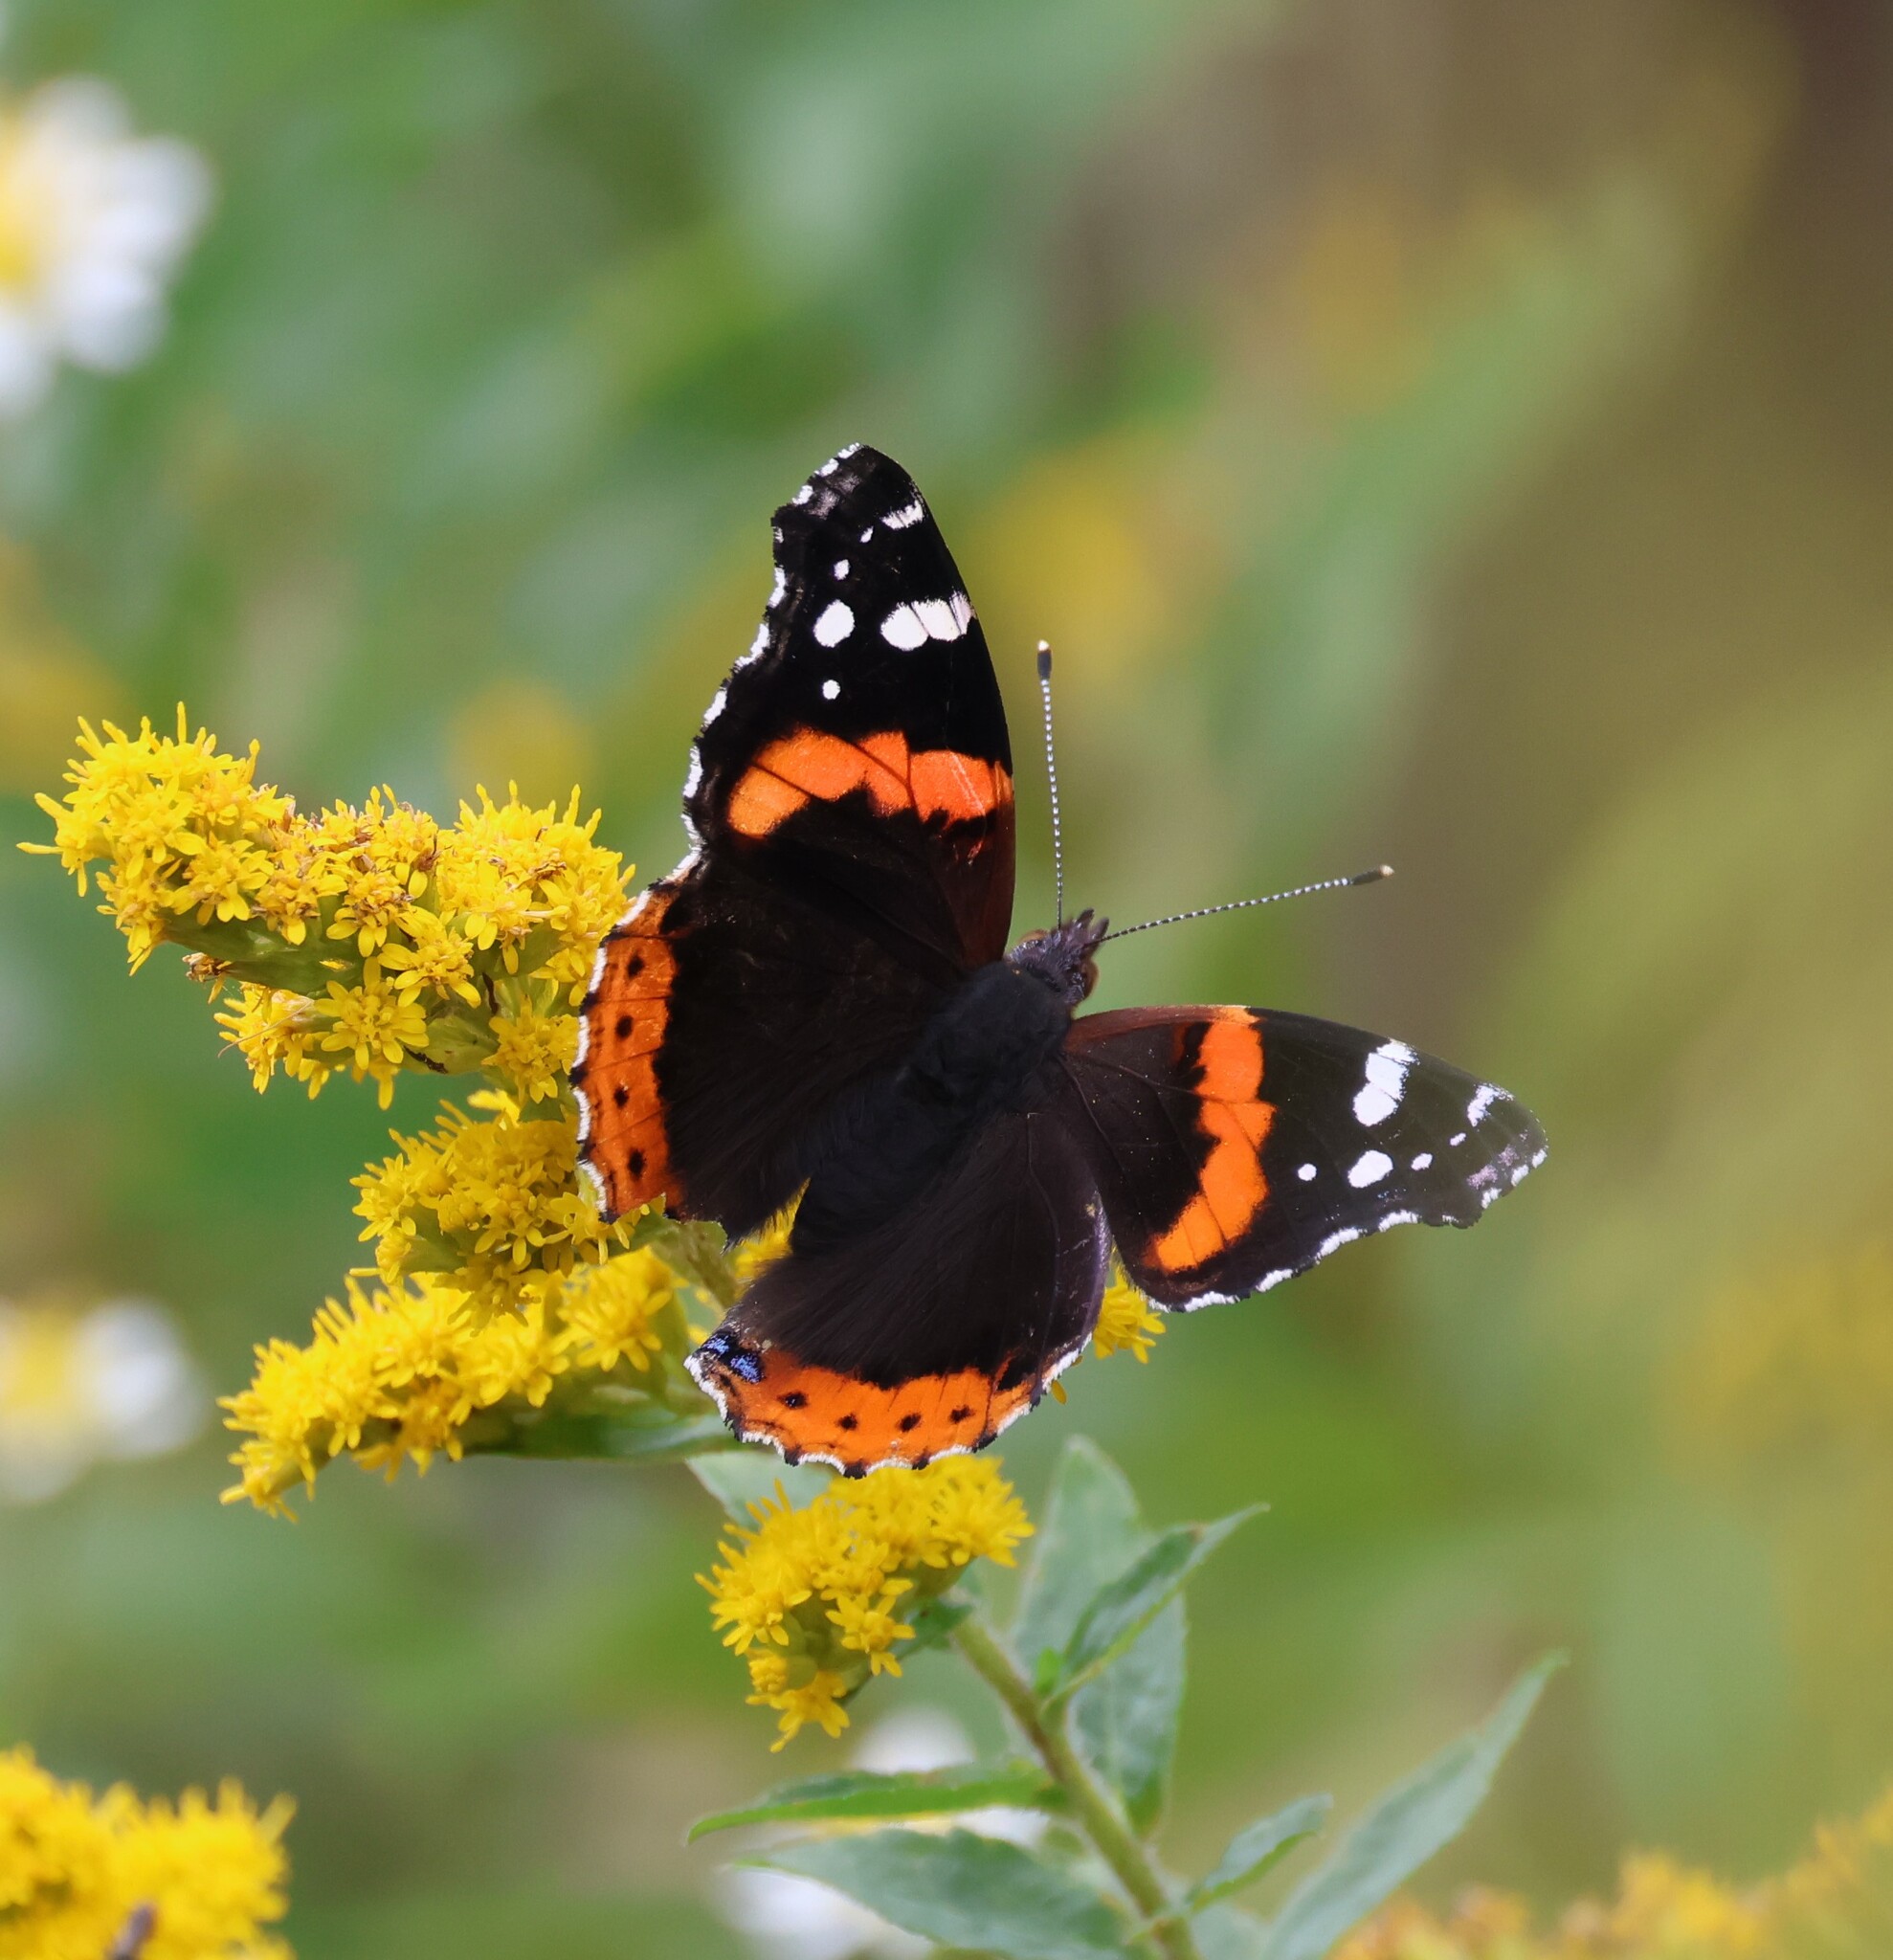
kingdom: Animalia
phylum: Arthropoda
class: Insecta
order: Lepidoptera
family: Nymphalidae
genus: Vanessa
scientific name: Vanessa atalanta
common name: Red admiral
